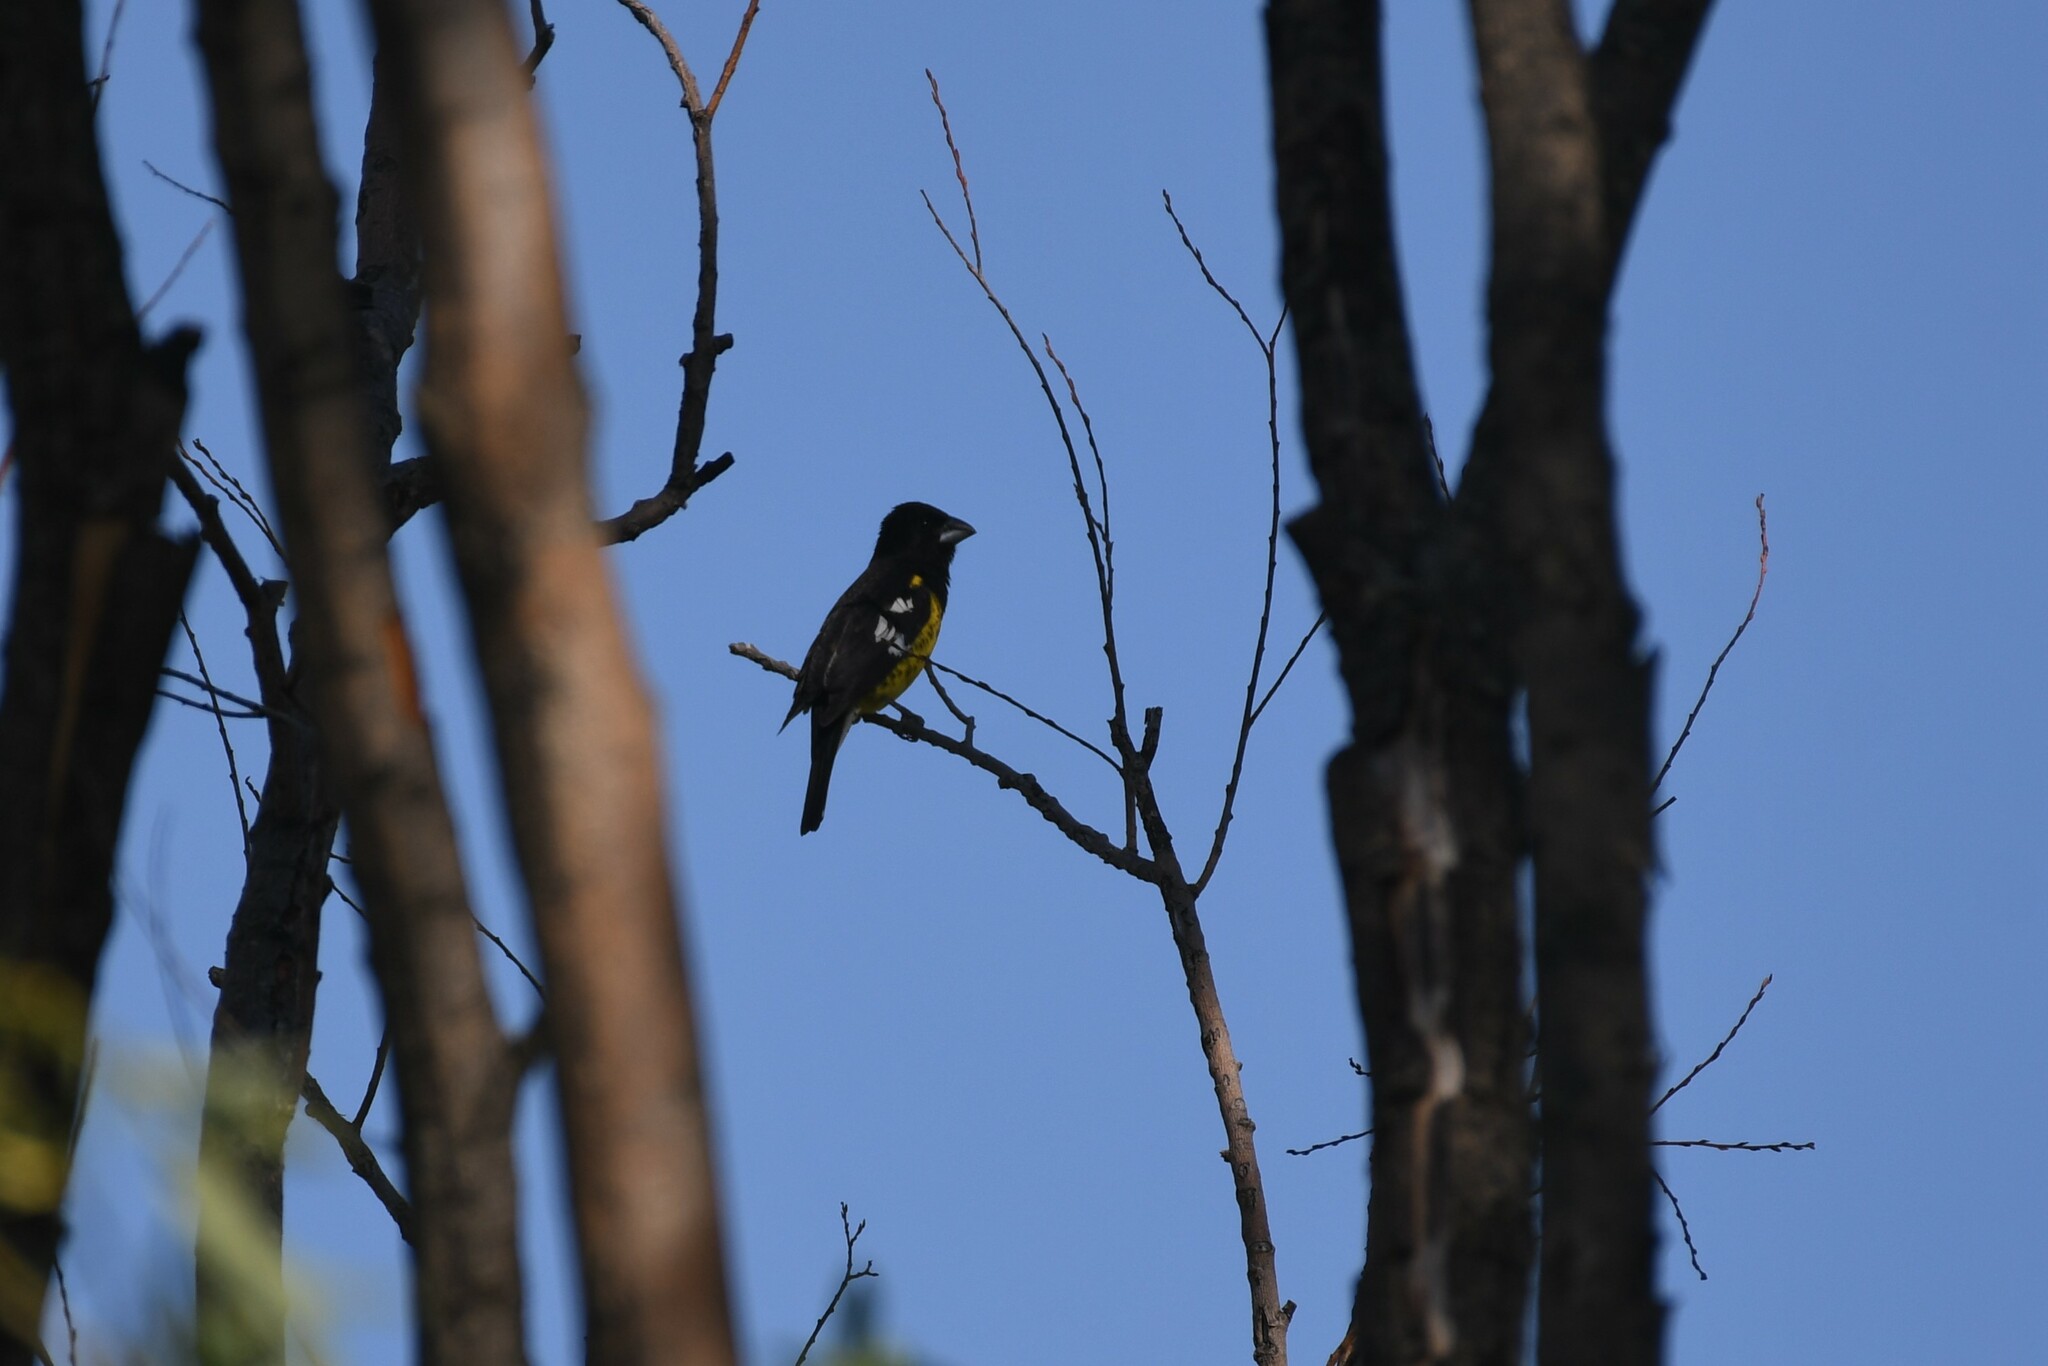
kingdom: Animalia
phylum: Chordata
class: Aves
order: Passeriformes
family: Cardinalidae
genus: Pheucticus
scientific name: Pheucticus aureoventris
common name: Black-backed grosbeak
